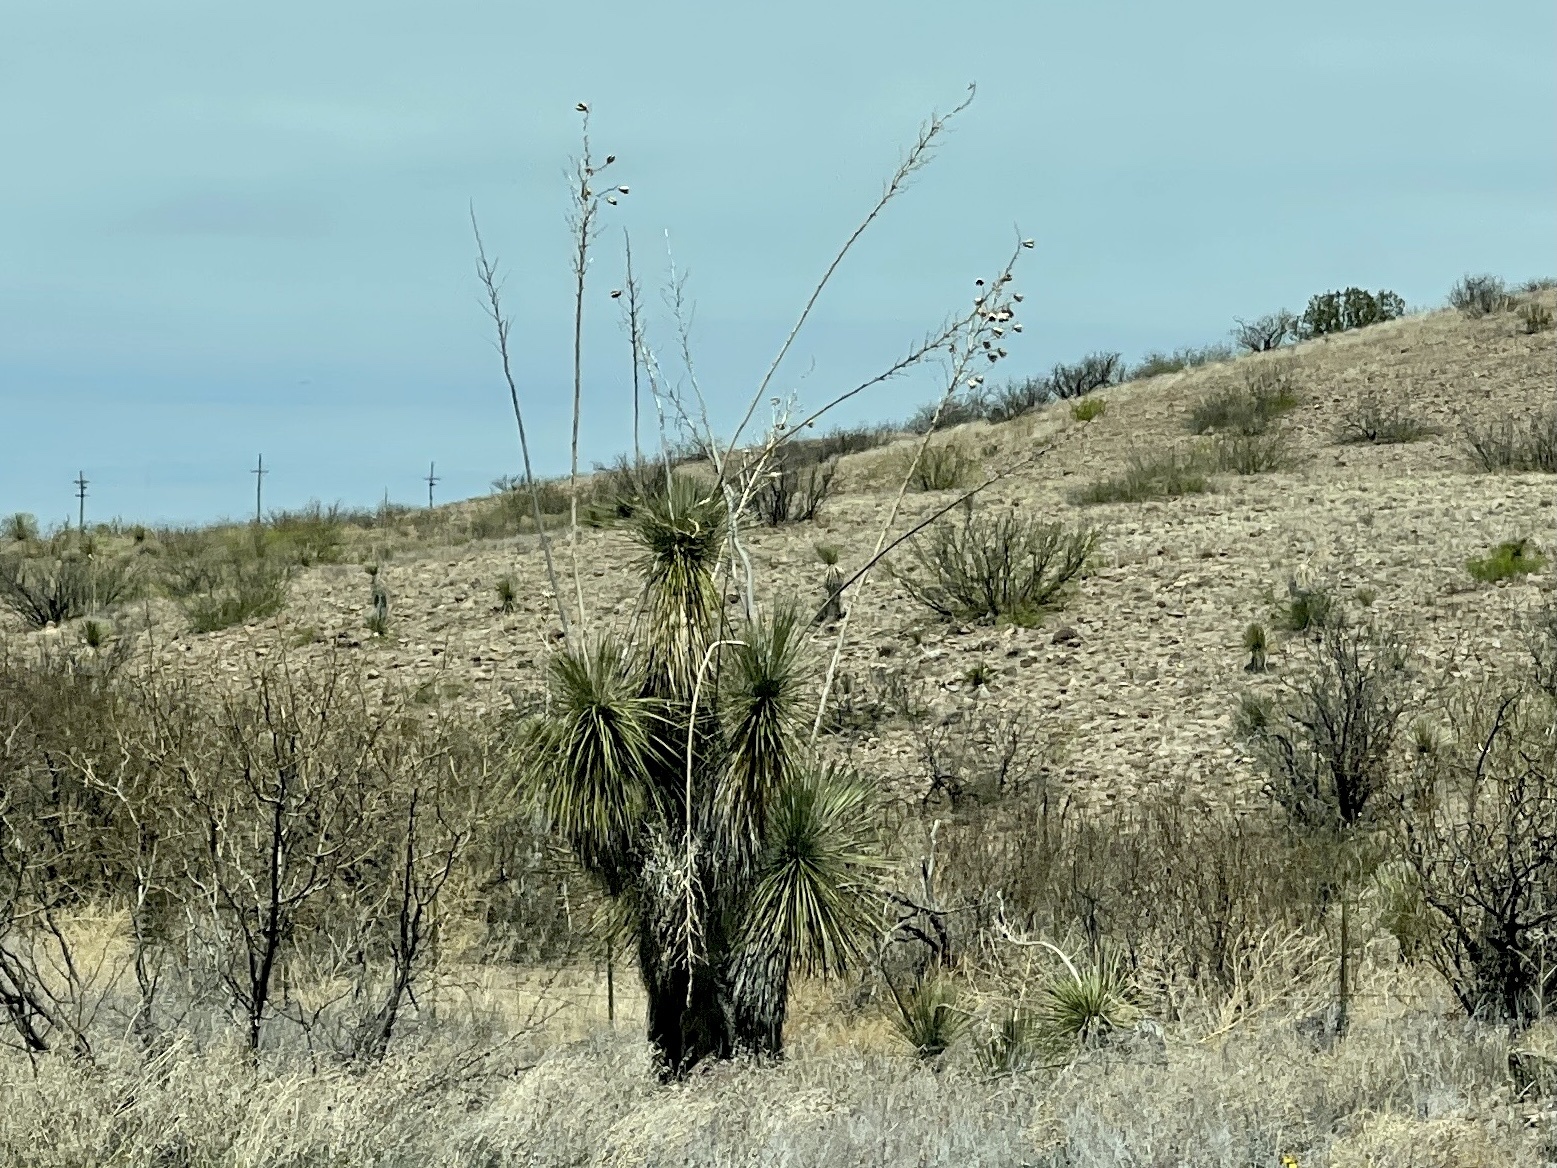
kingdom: Plantae
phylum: Tracheophyta
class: Liliopsida
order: Asparagales
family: Asparagaceae
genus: Yucca
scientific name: Yucca elata
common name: Palmella
